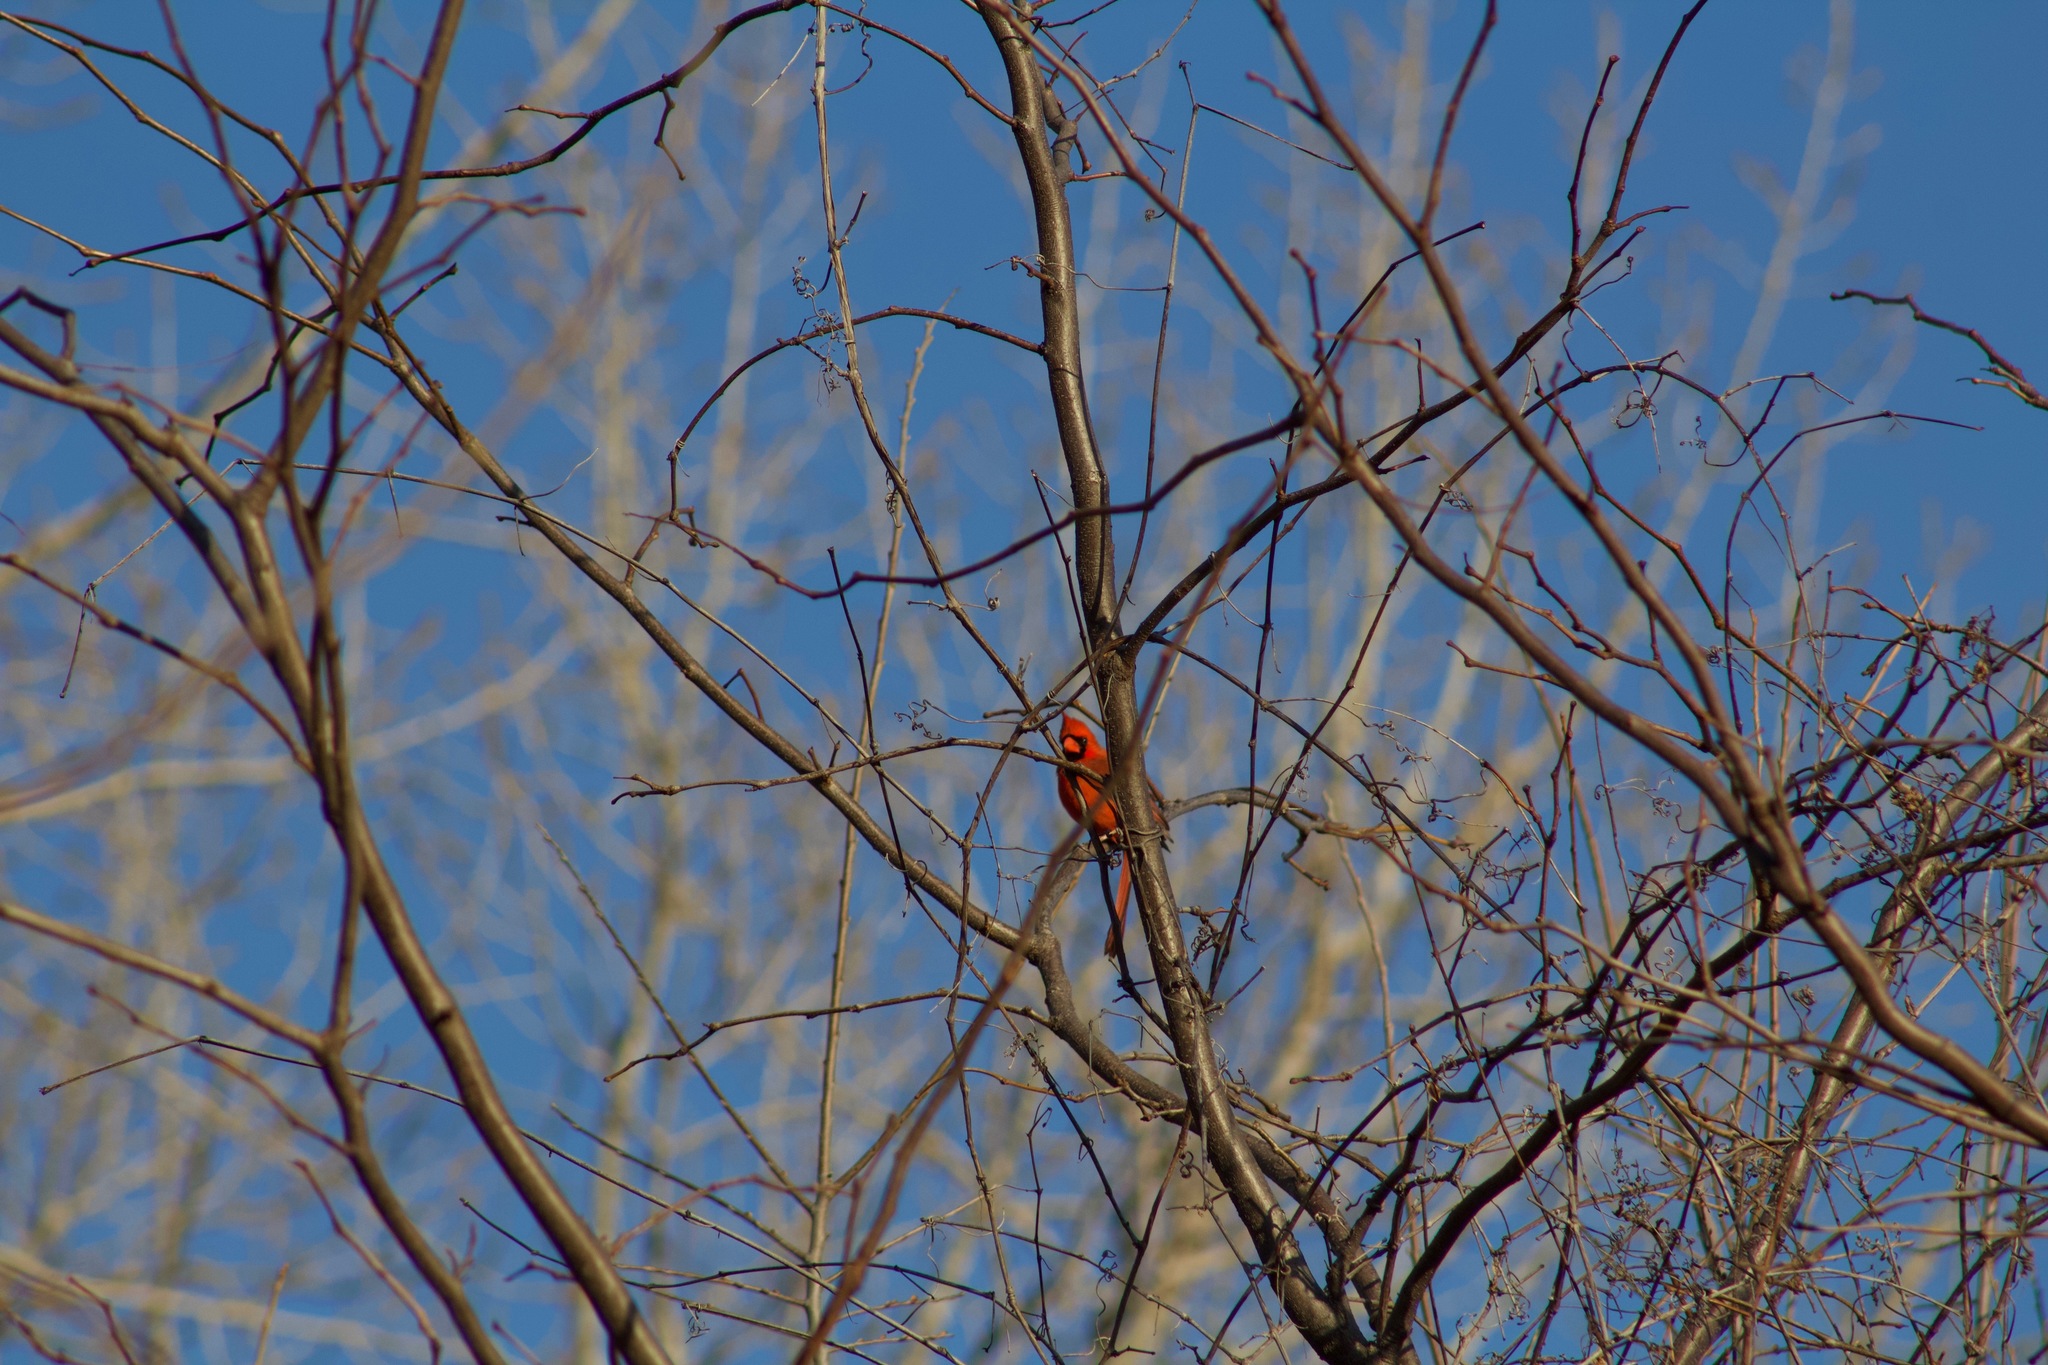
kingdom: Animalia
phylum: Chordata
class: Aves
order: Passeriformes
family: Cardinalidae
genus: Cardinalis
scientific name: Cardinalis cardinalis
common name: Northern cardinal
